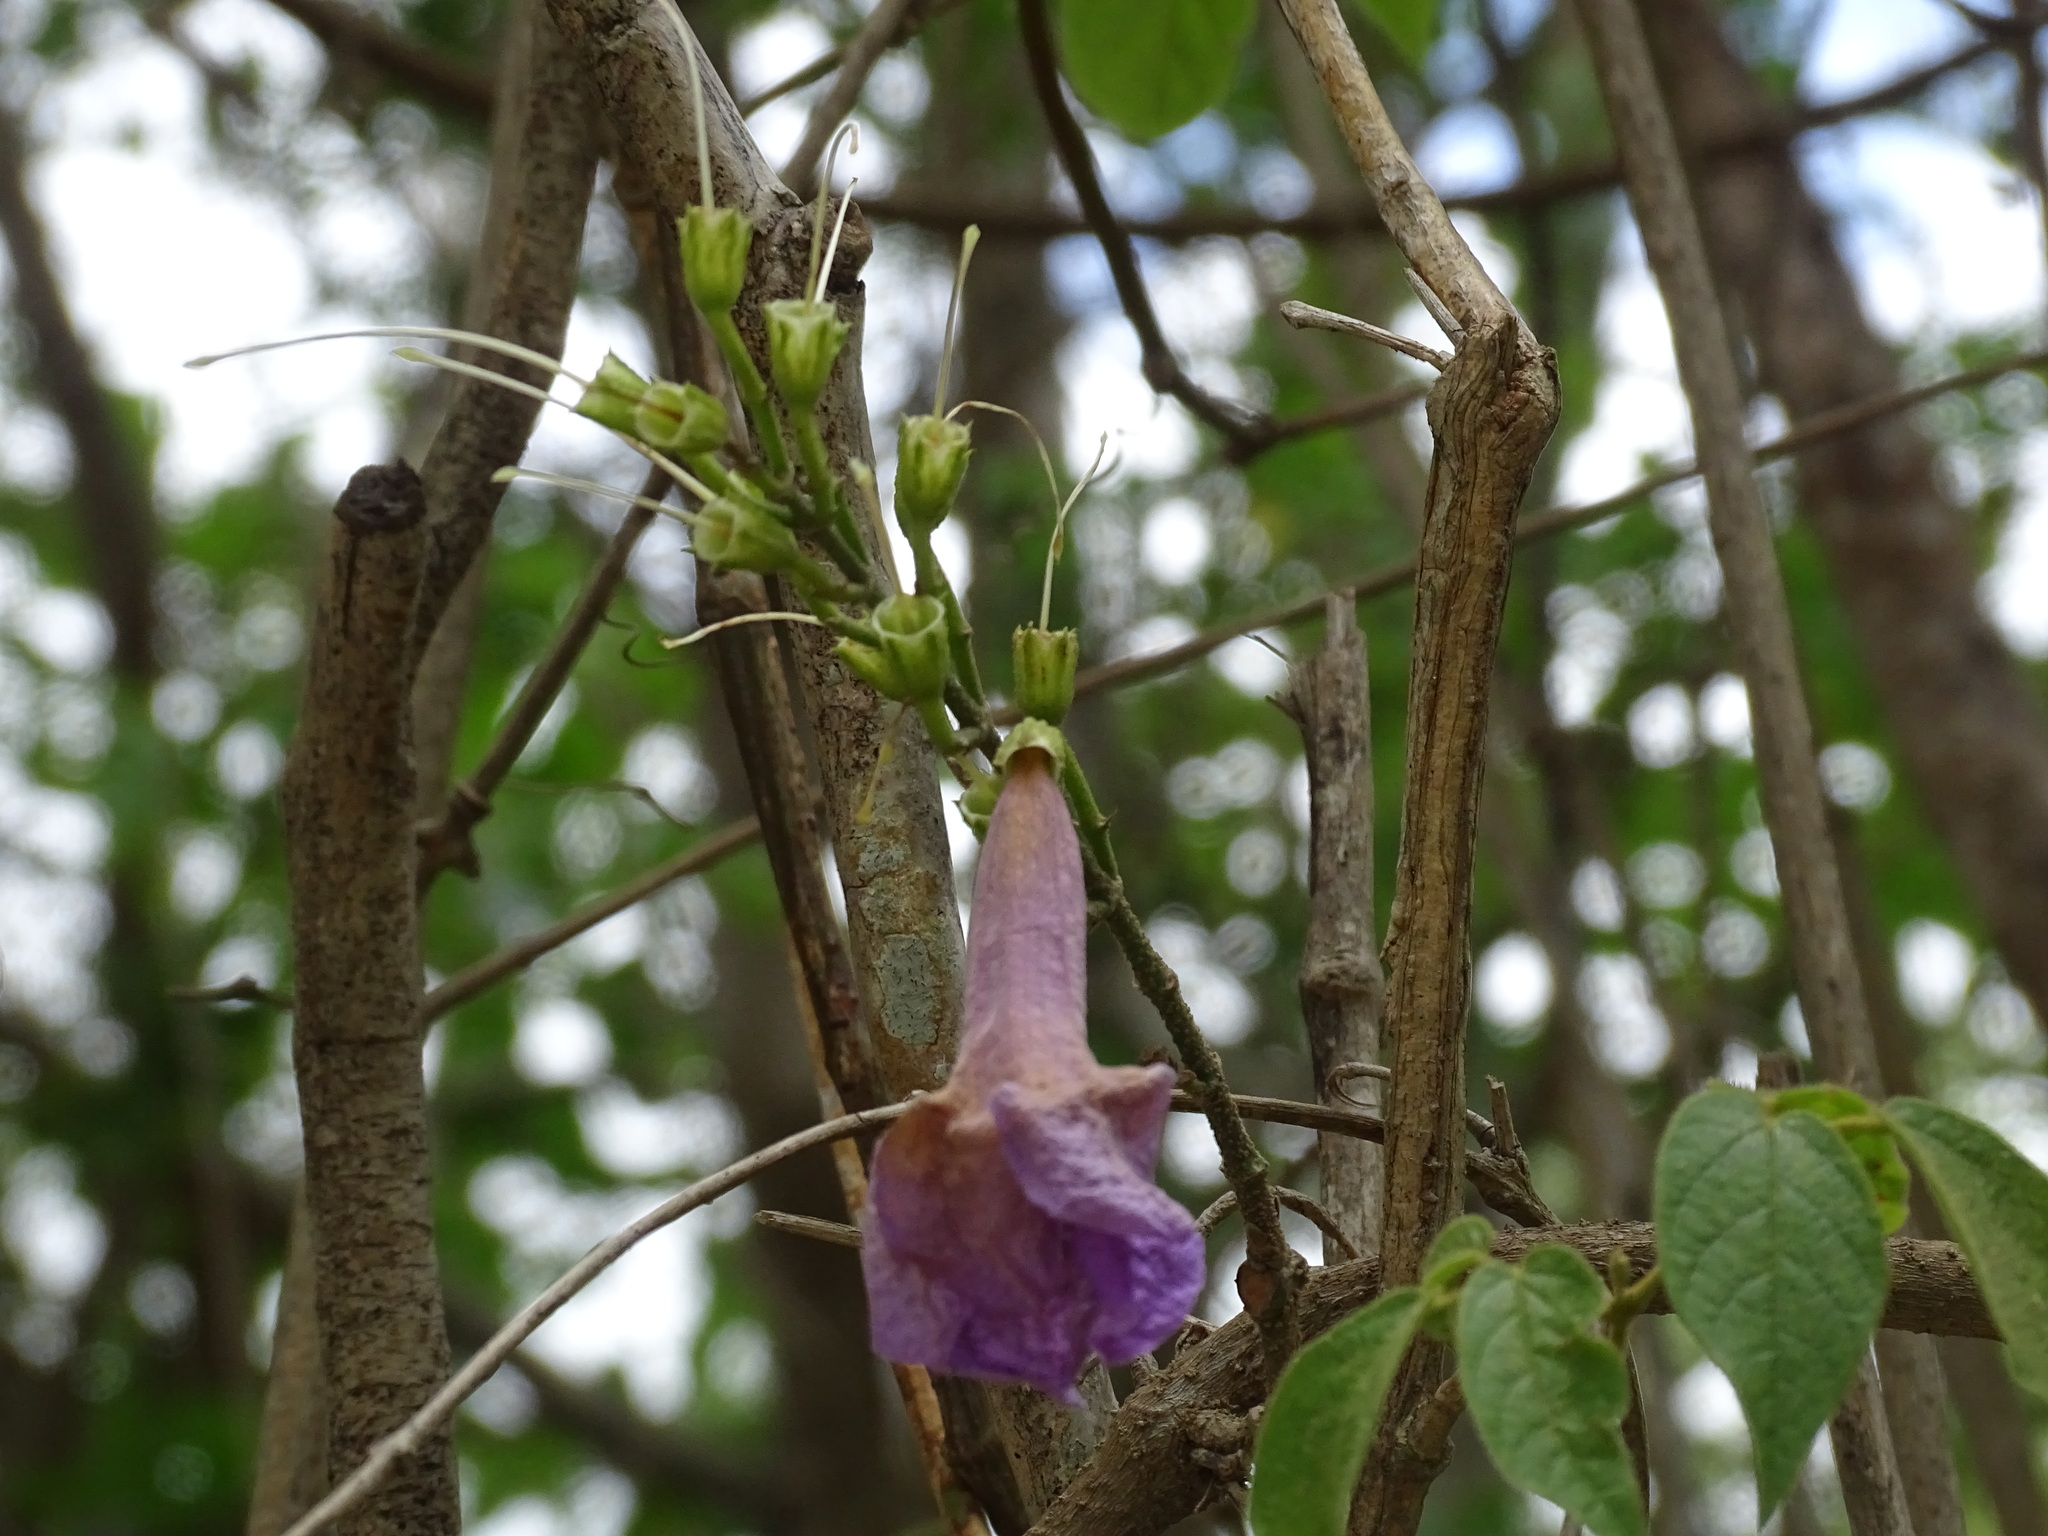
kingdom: Plantae
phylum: Tracheophyta
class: Magnoliopsida
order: Lamiales
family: Bignoniaceae
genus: Bignonia
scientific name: Bignonia neoheterophylla
